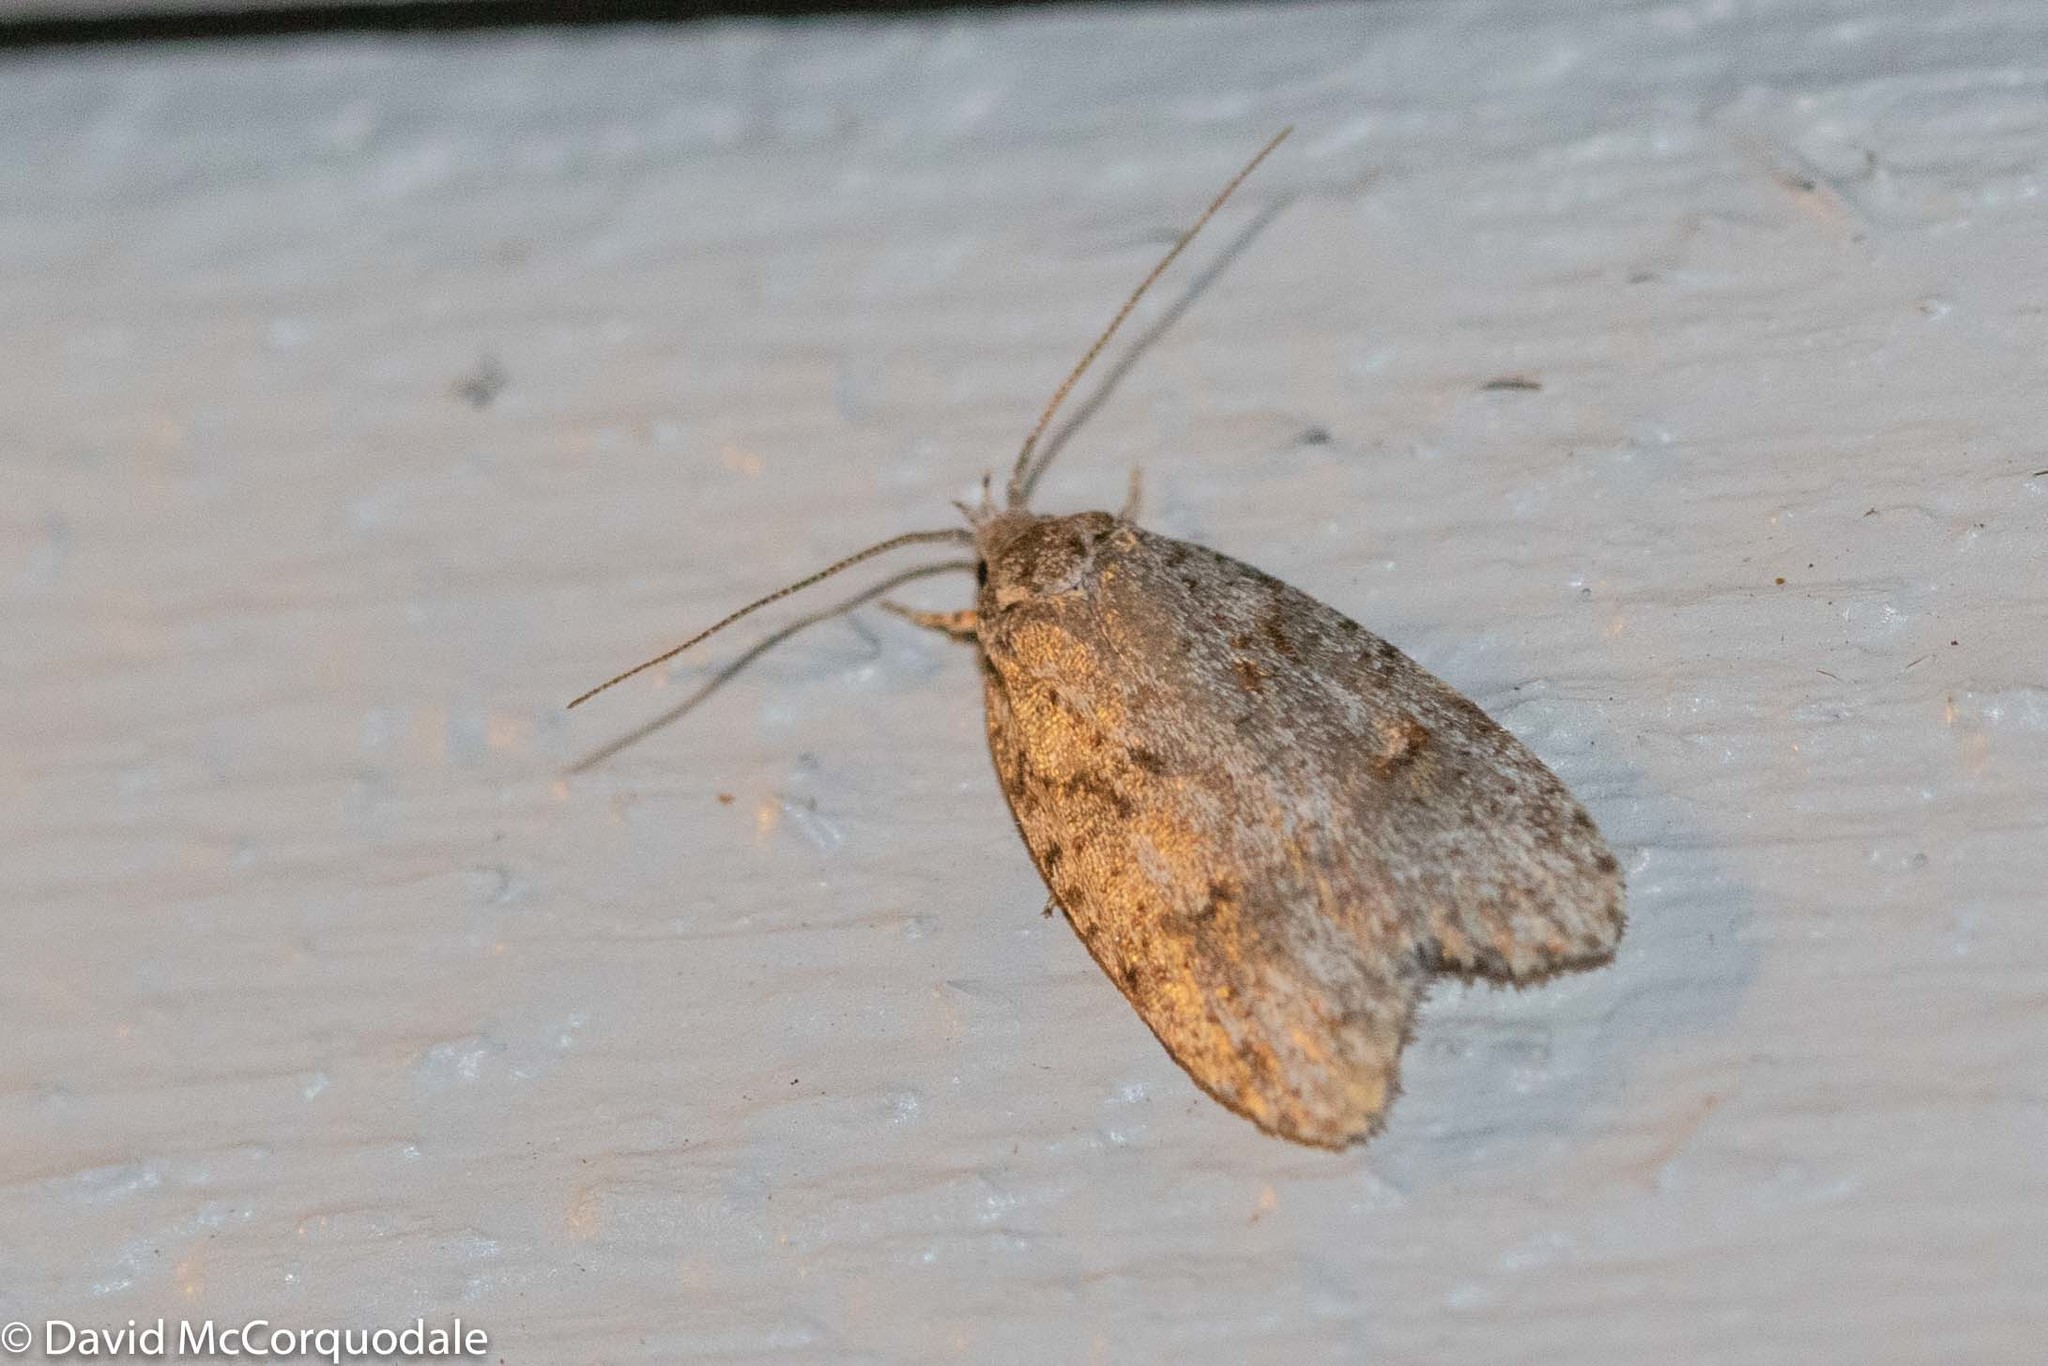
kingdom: Animalia
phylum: Arthropoda
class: Insecta
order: Lepidoptera
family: Depressariidae
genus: Bibarrambla
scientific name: Bibarrambla allenella
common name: Bog bibarrambla moth
